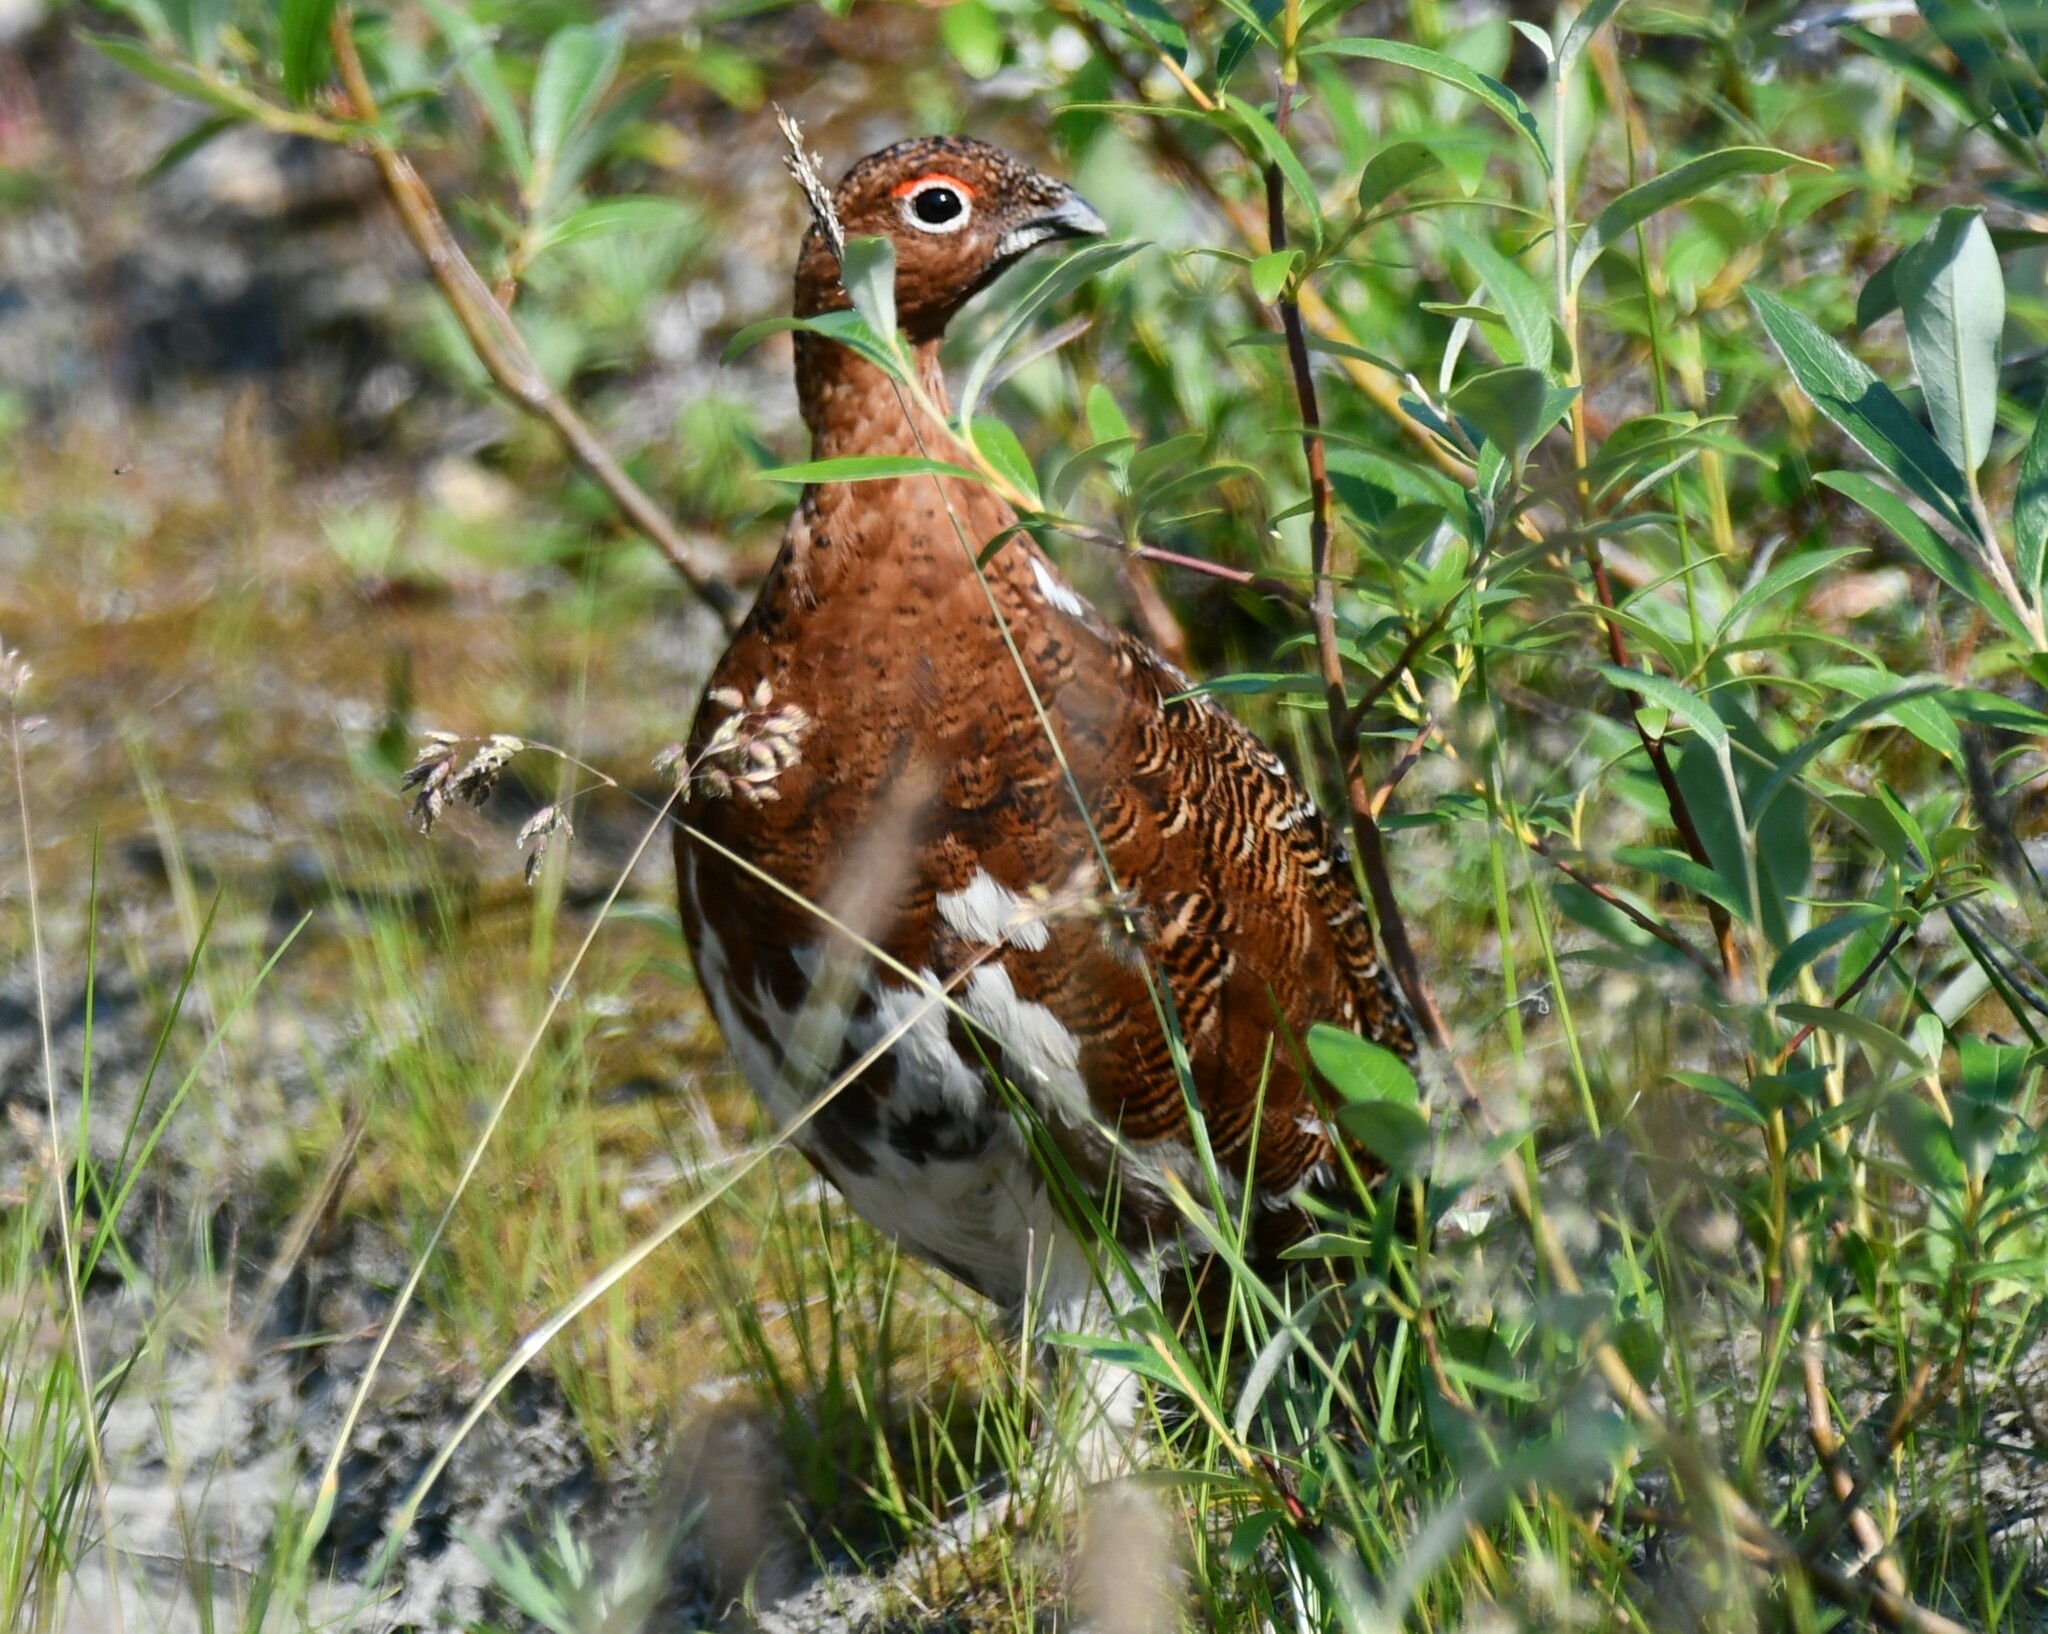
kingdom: Animalia
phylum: Chordata
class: Aves
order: Galliformes
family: Phasianidae
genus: Lagopus
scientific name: Lagopus lagopus
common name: Willow ptarmigan
